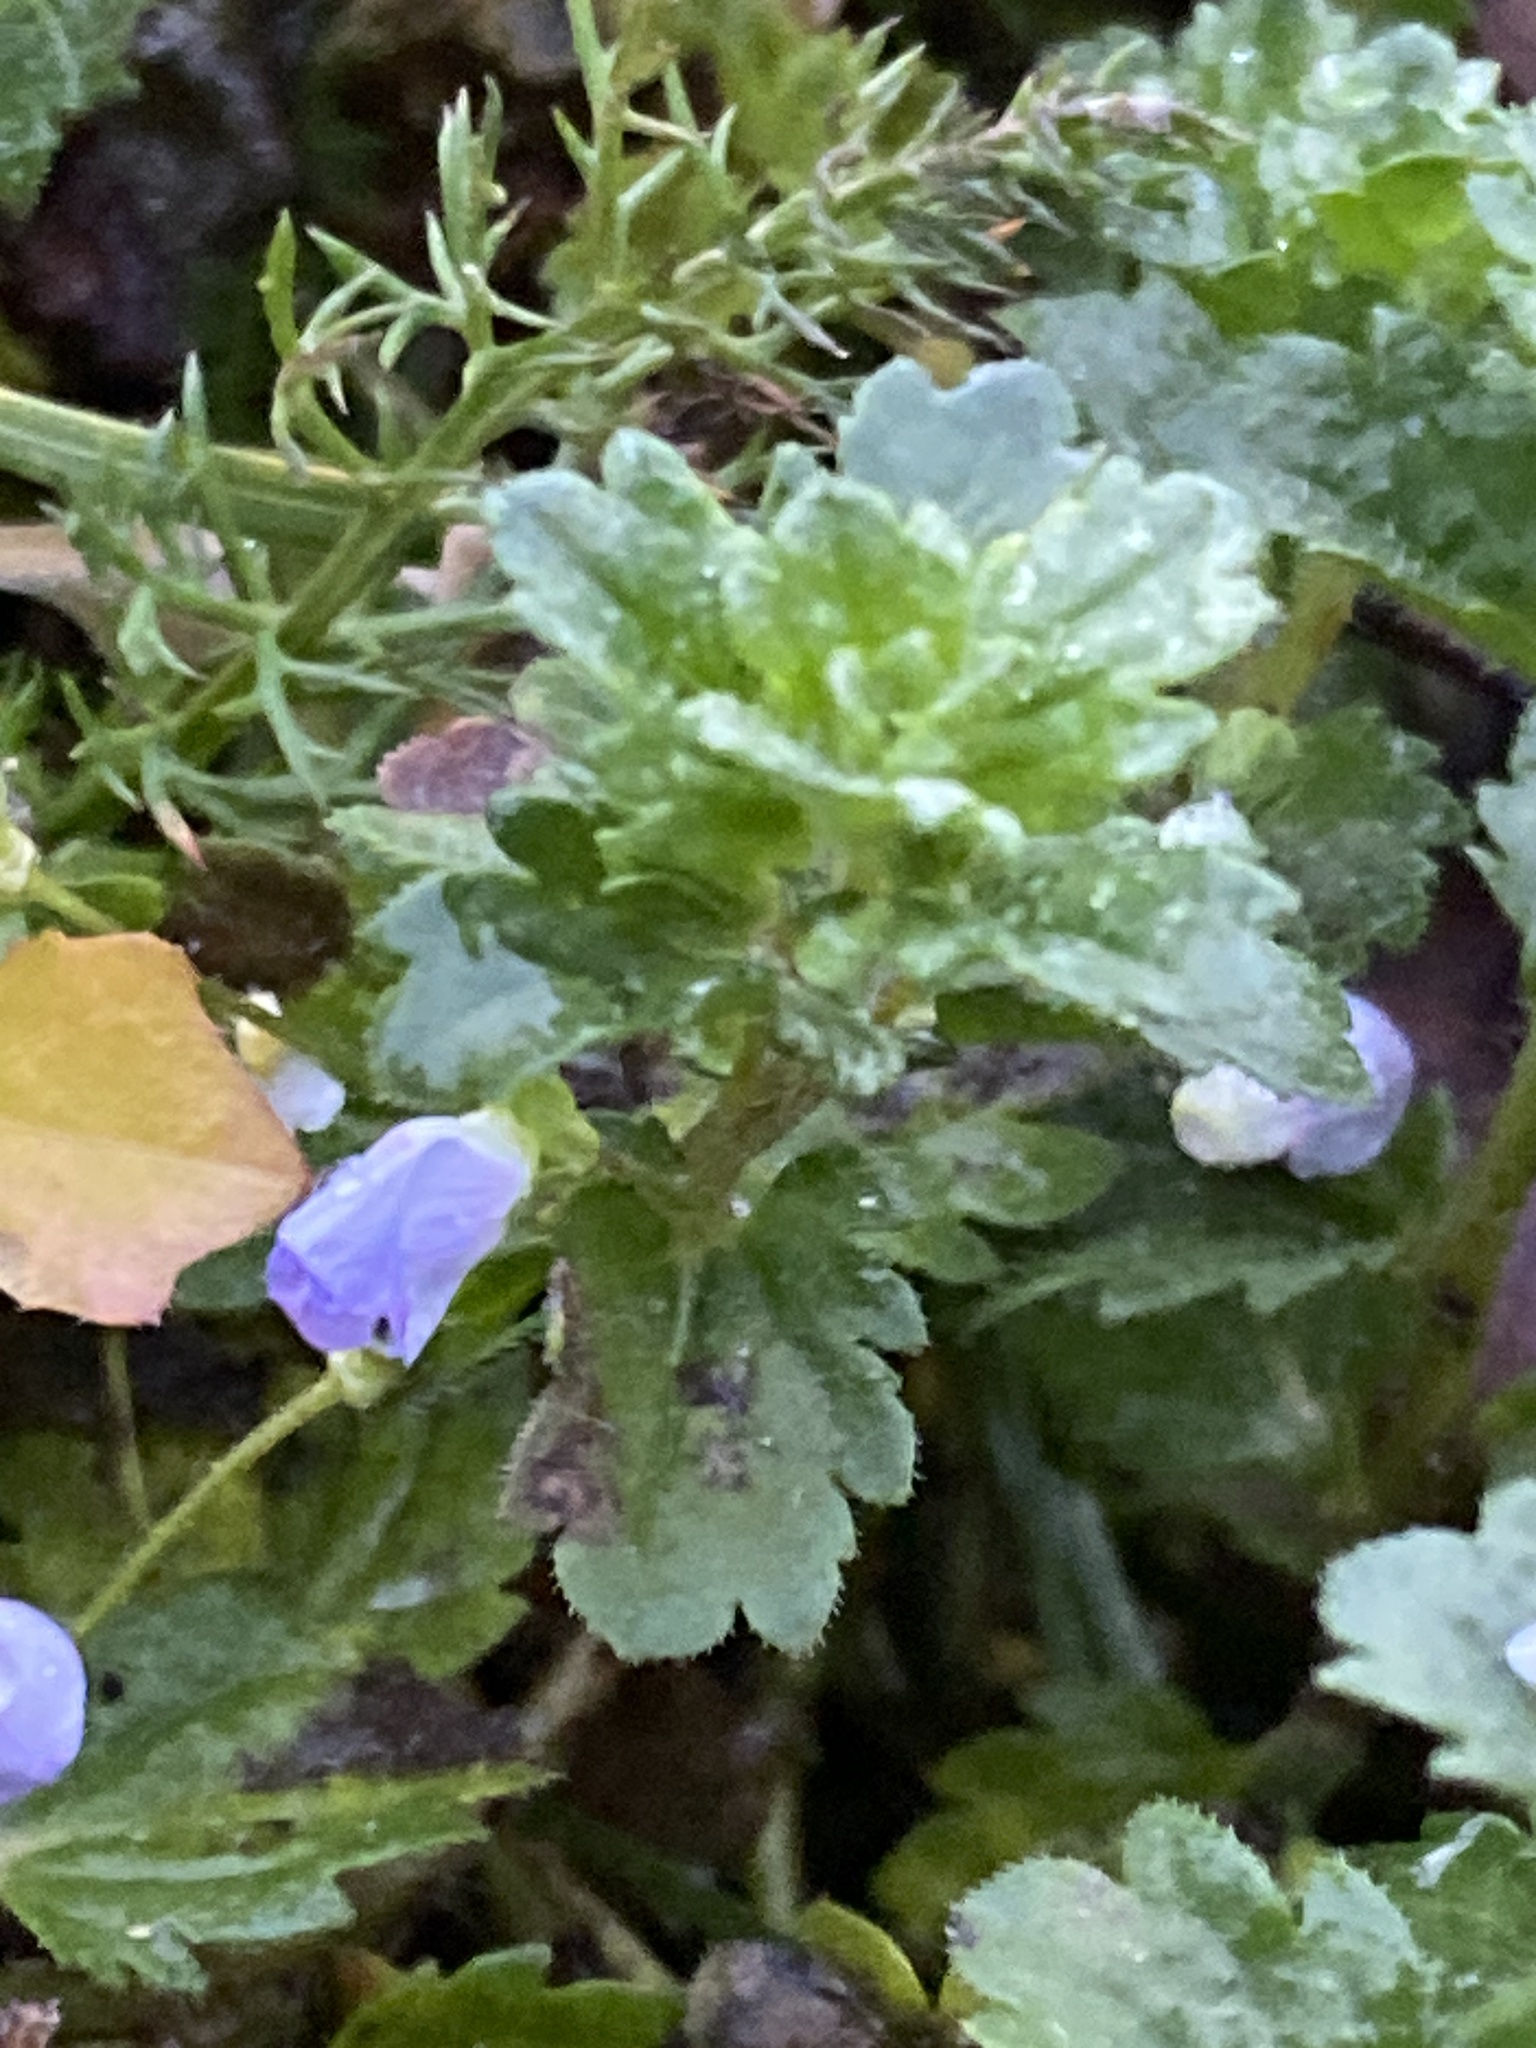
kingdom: Plantae
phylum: Tracheophyta
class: Magnoliopsida
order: Lamiales
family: Plantaginaceae
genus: Veronica
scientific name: Veronica persica
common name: Common field-speedwell
